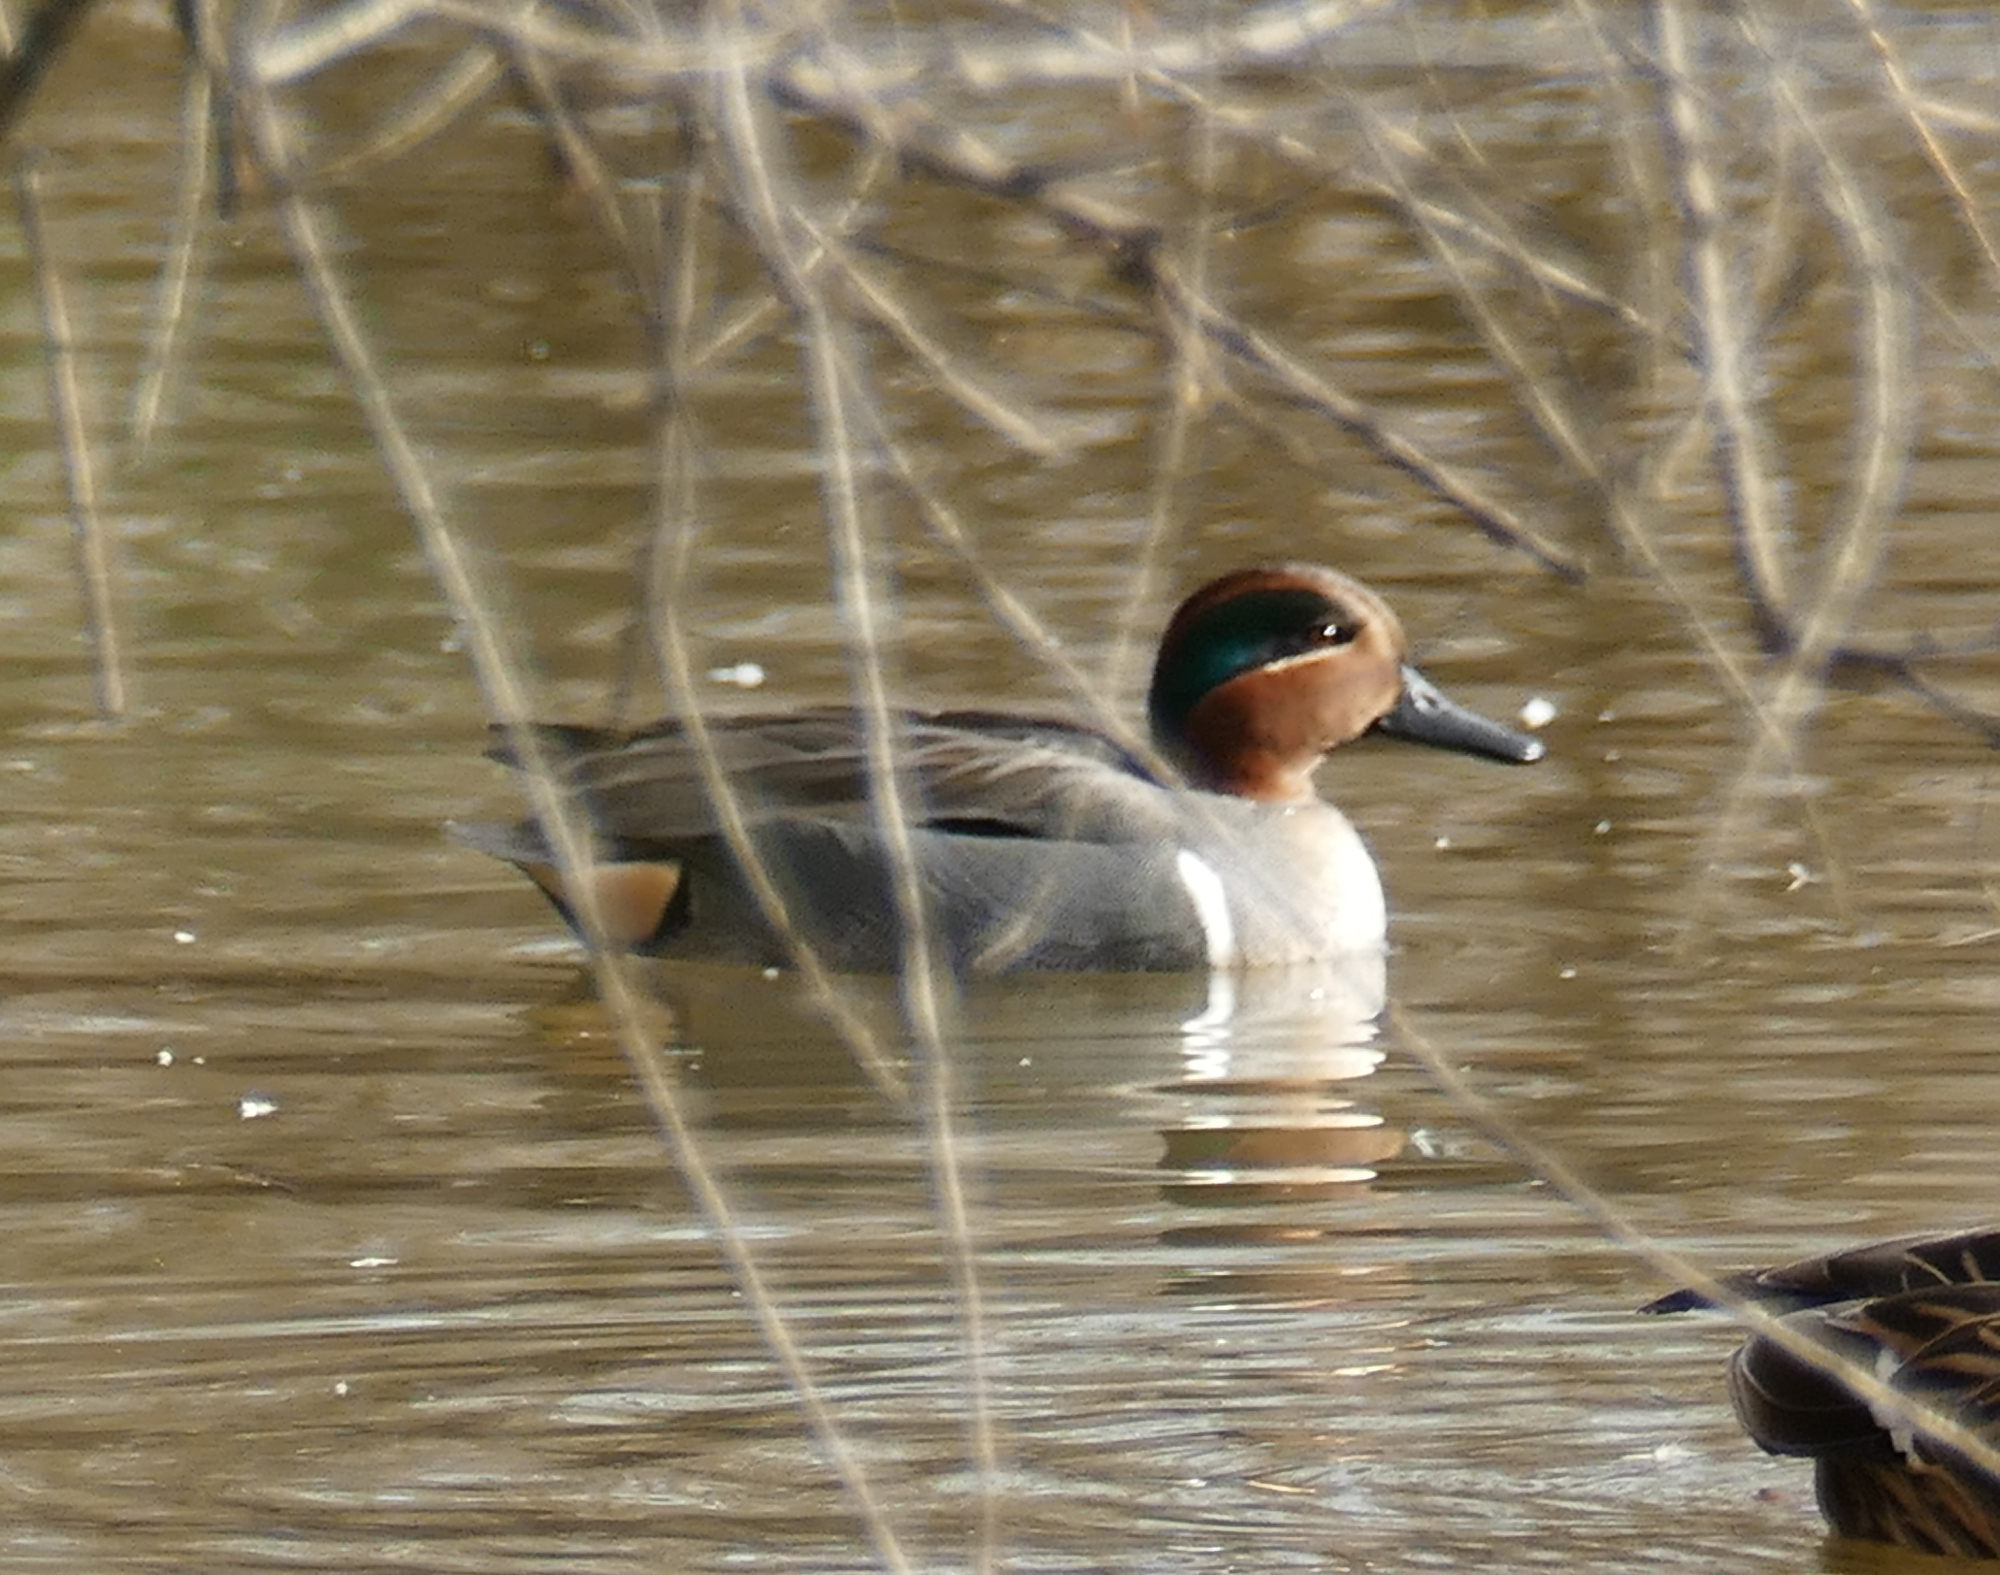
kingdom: Animalia
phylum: Chordata
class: Aves
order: Anseriformes
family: Anatidae
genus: Anas
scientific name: Anas crecca
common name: Eurasian teal
